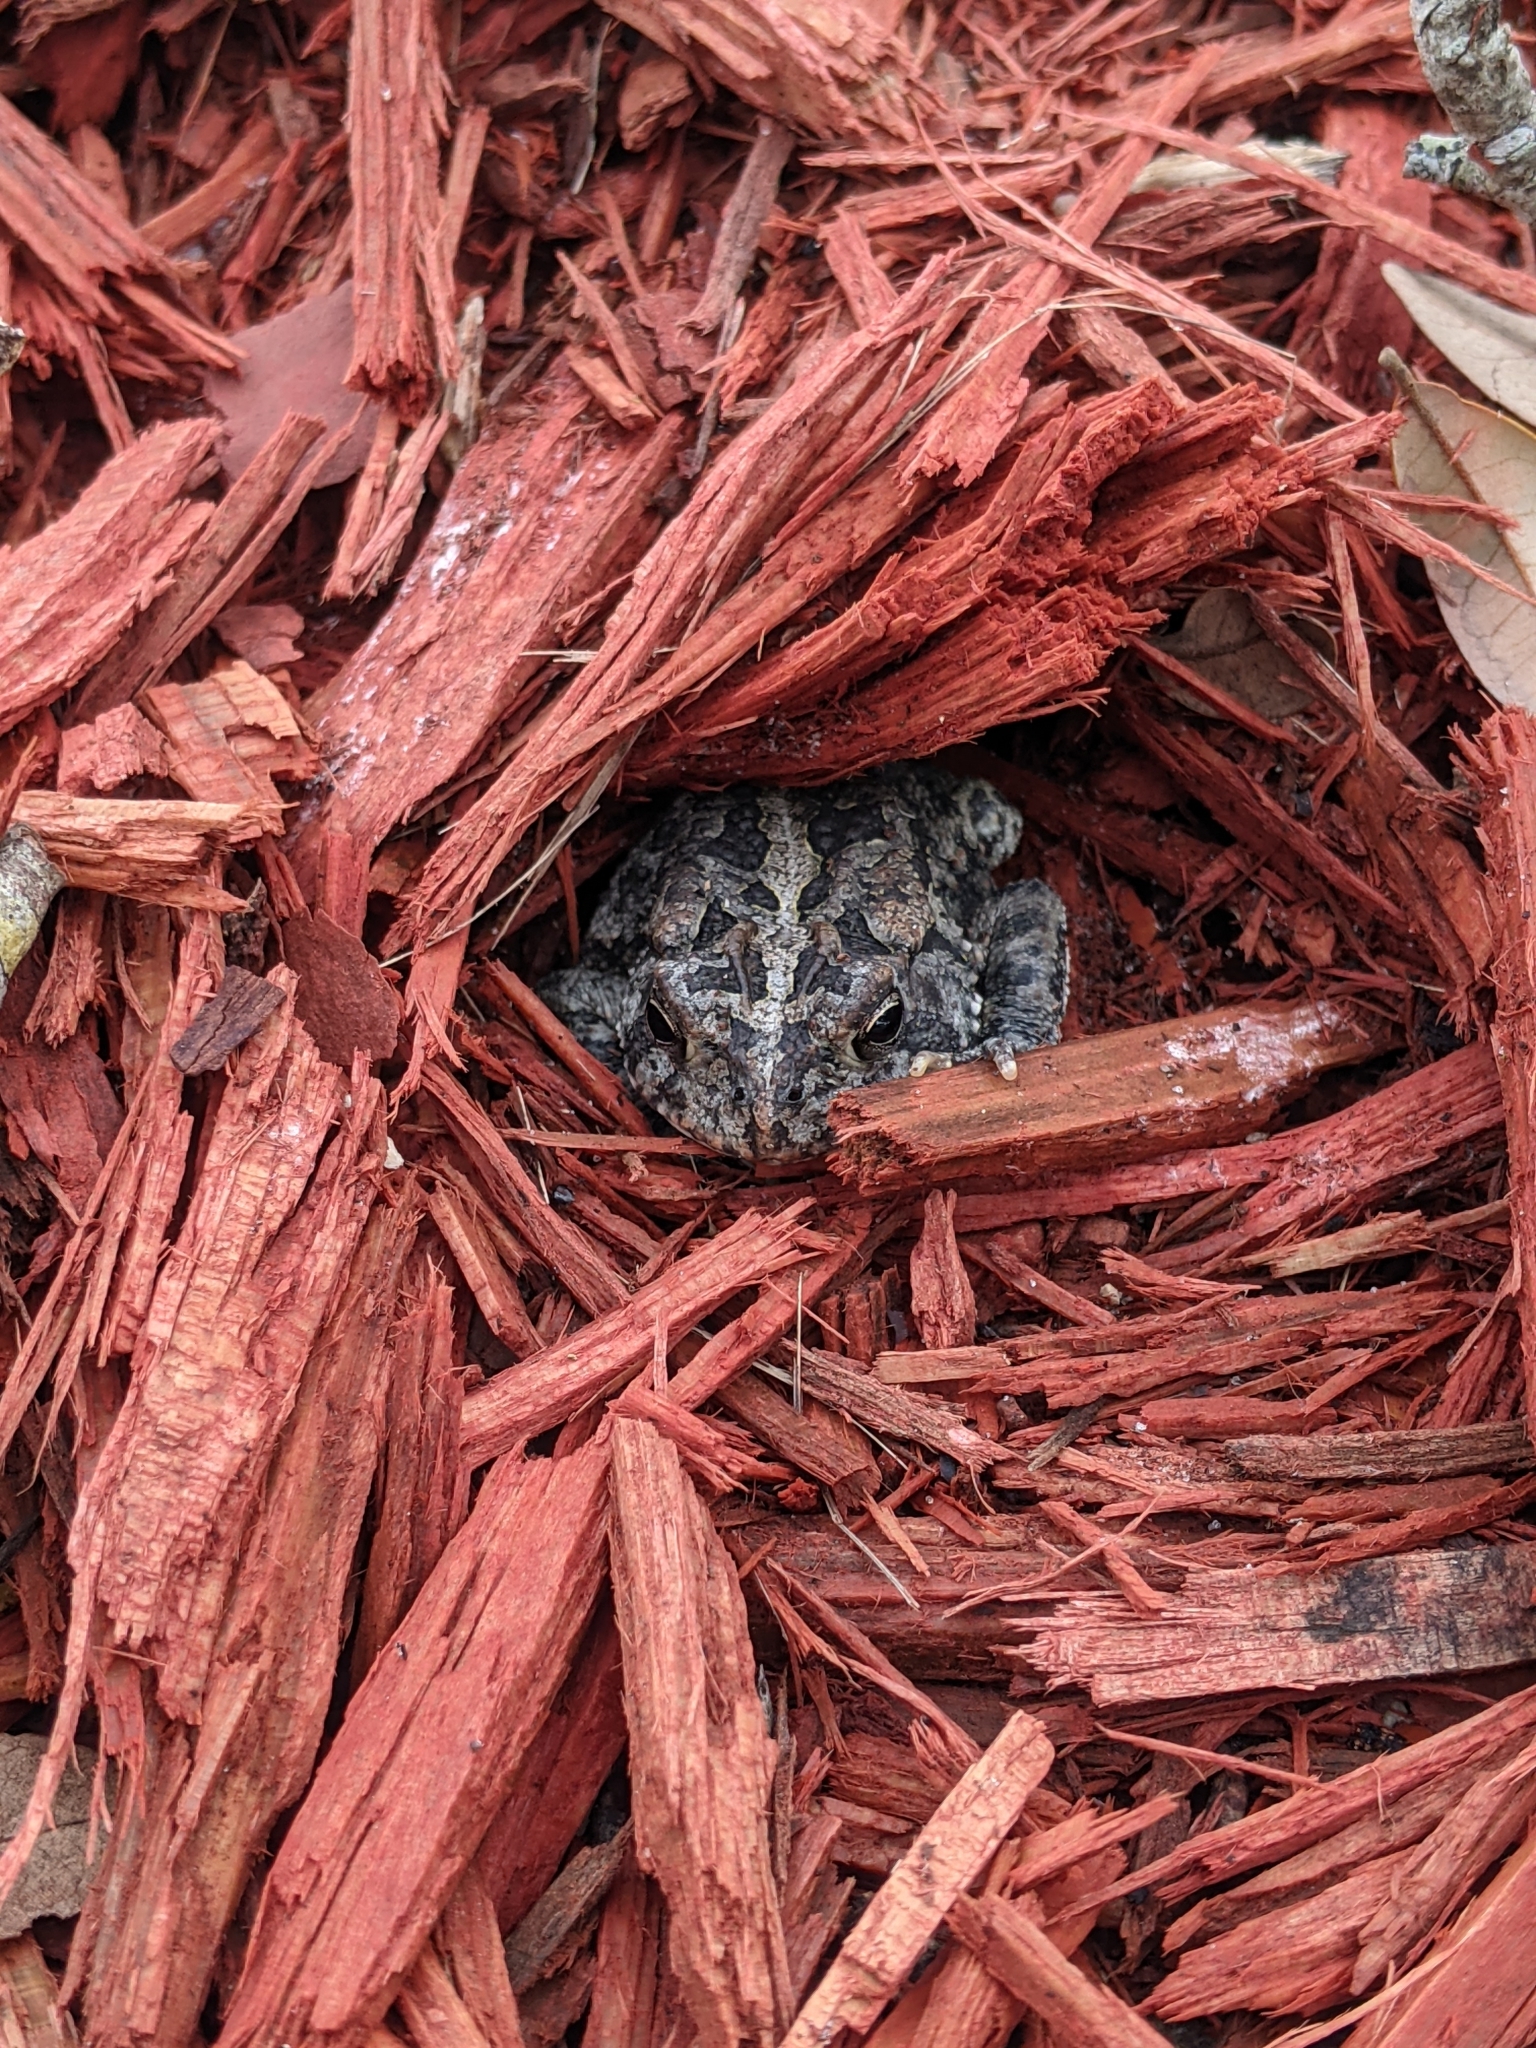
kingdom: Animalia
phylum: Chordata
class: Amphibia
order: Anura
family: Bufonidae
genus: Anaxyrus
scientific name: Anaxyrus terrestris
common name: Southern toad
